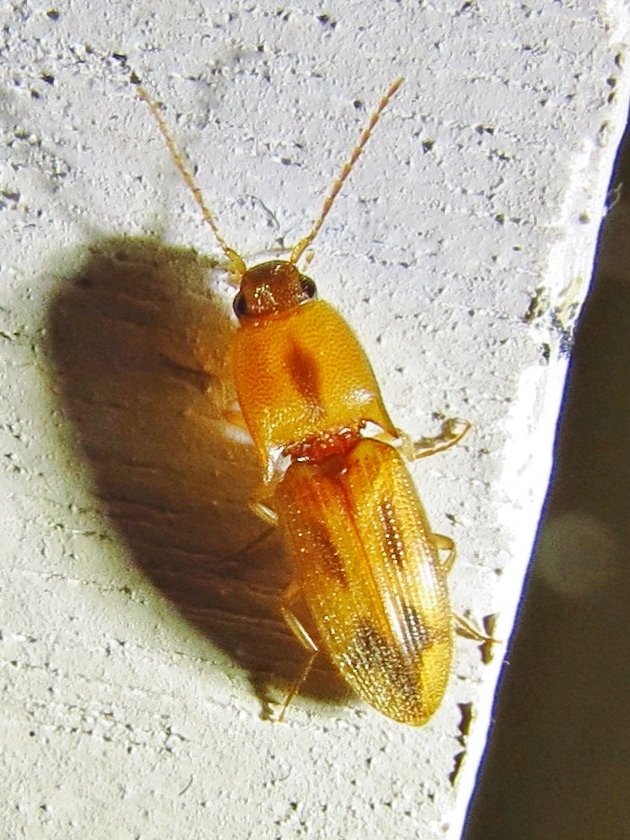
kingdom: Animalia
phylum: Arthropoda
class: Insecta
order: Coleoptera
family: Elateridae
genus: Aeolus
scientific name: Aeolus mellillus
